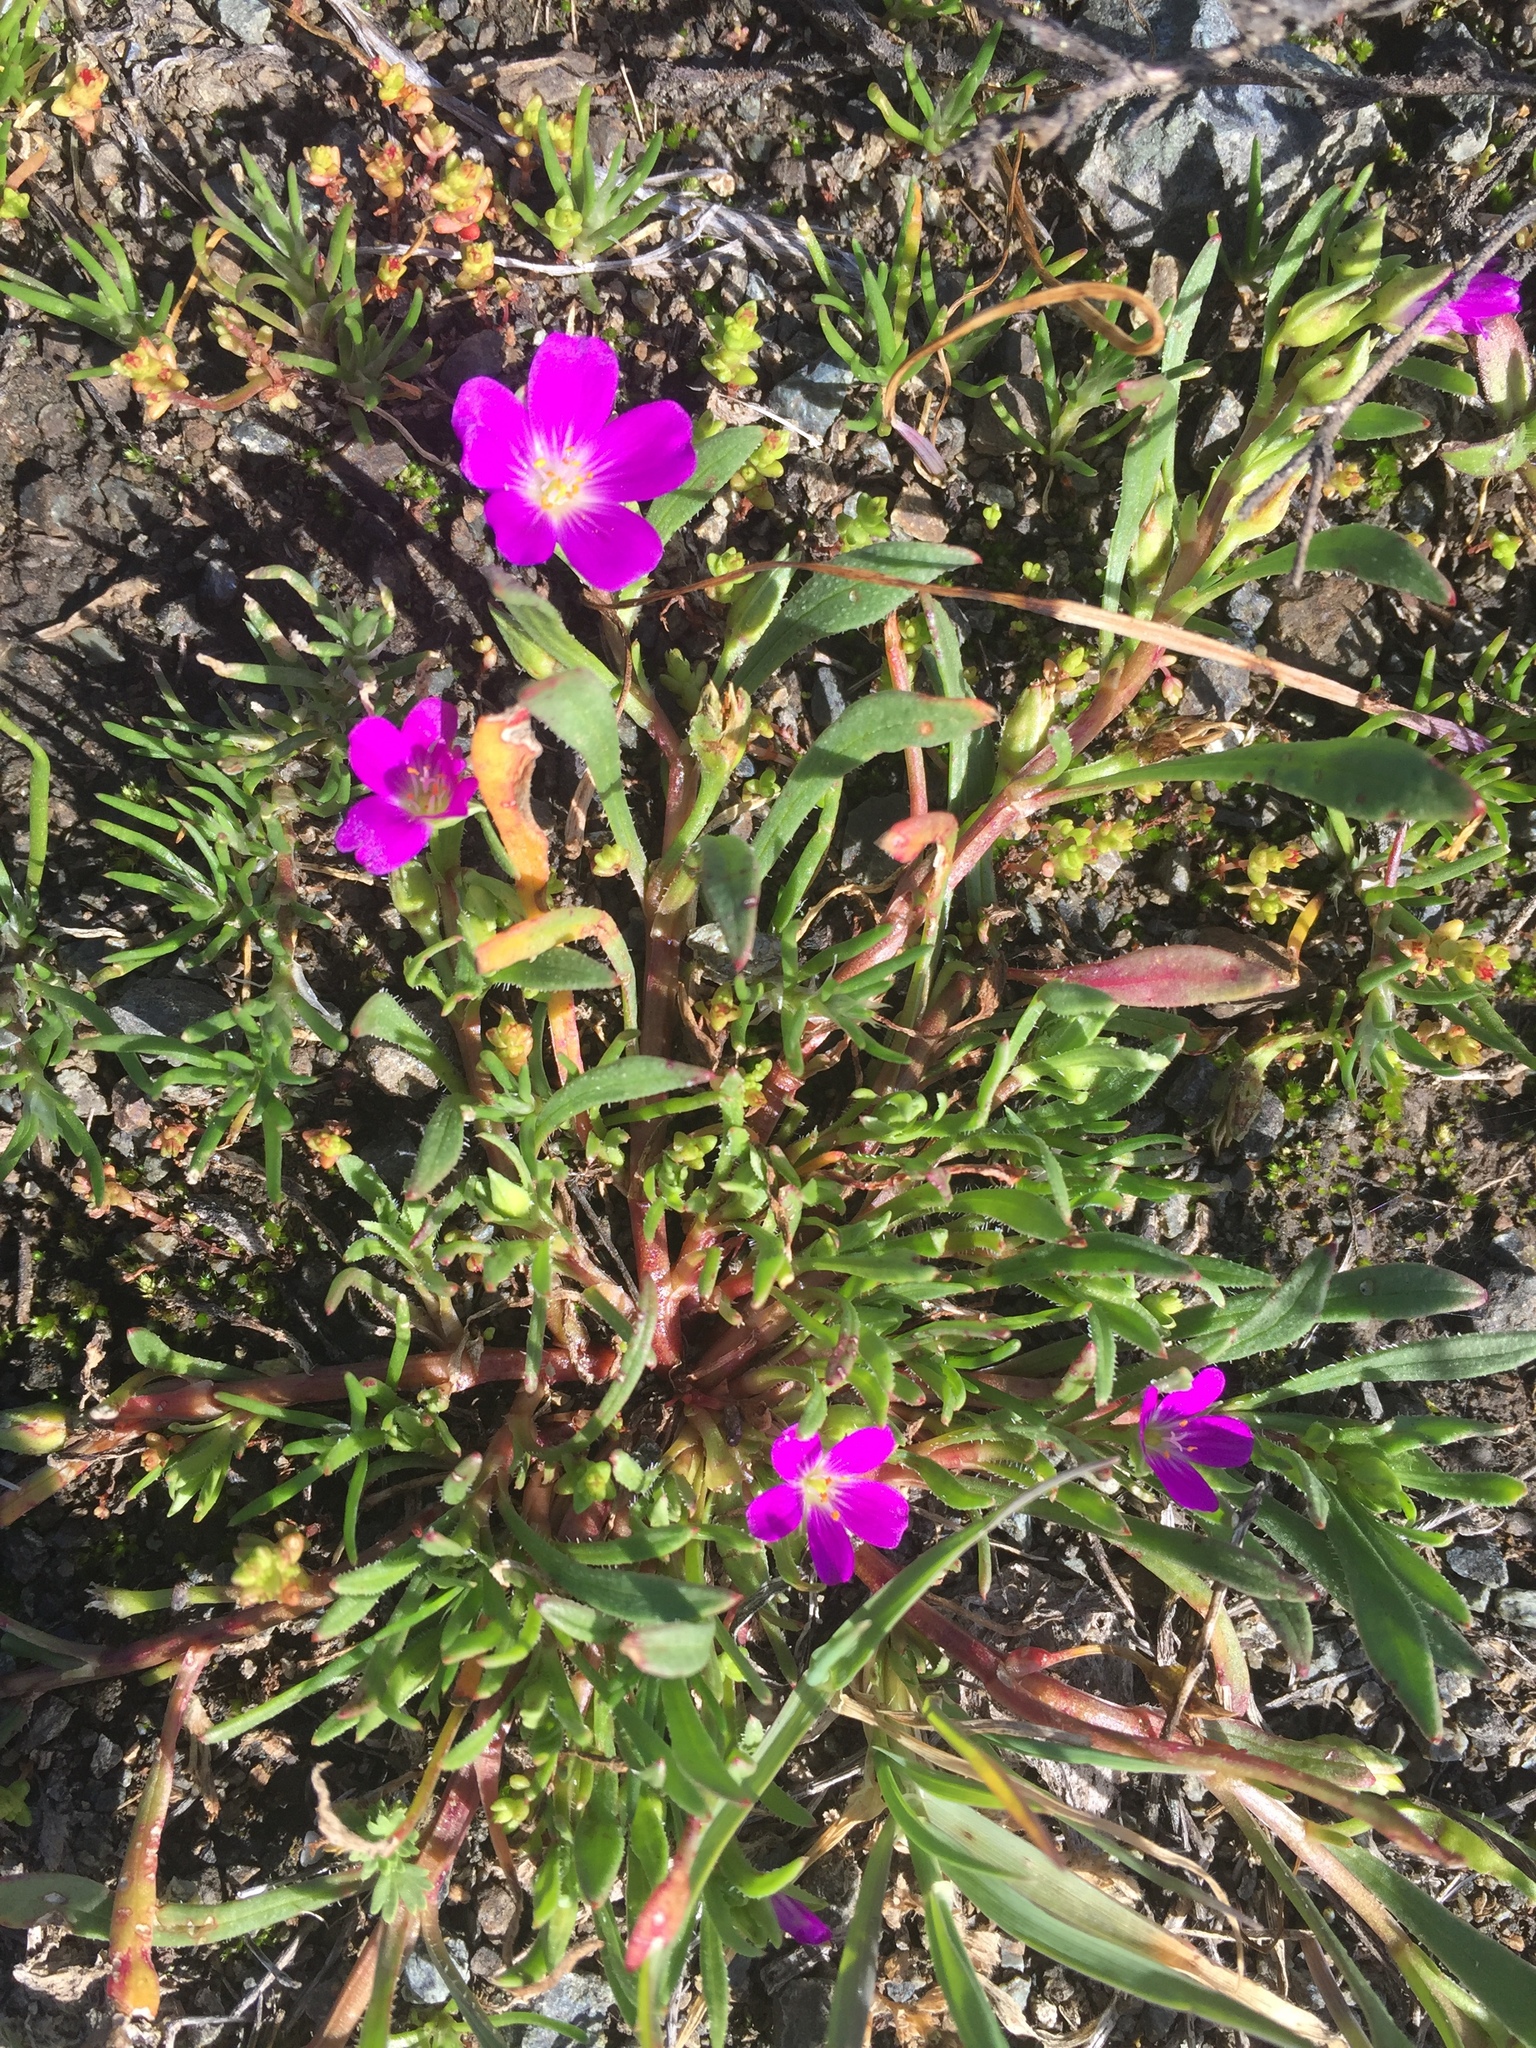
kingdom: Plantae
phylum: Tracheophyta
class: Magnoliopsida
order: Caryophyllales
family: Montiaceae
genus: Calandrinia
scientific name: Calandrinia menziesii
